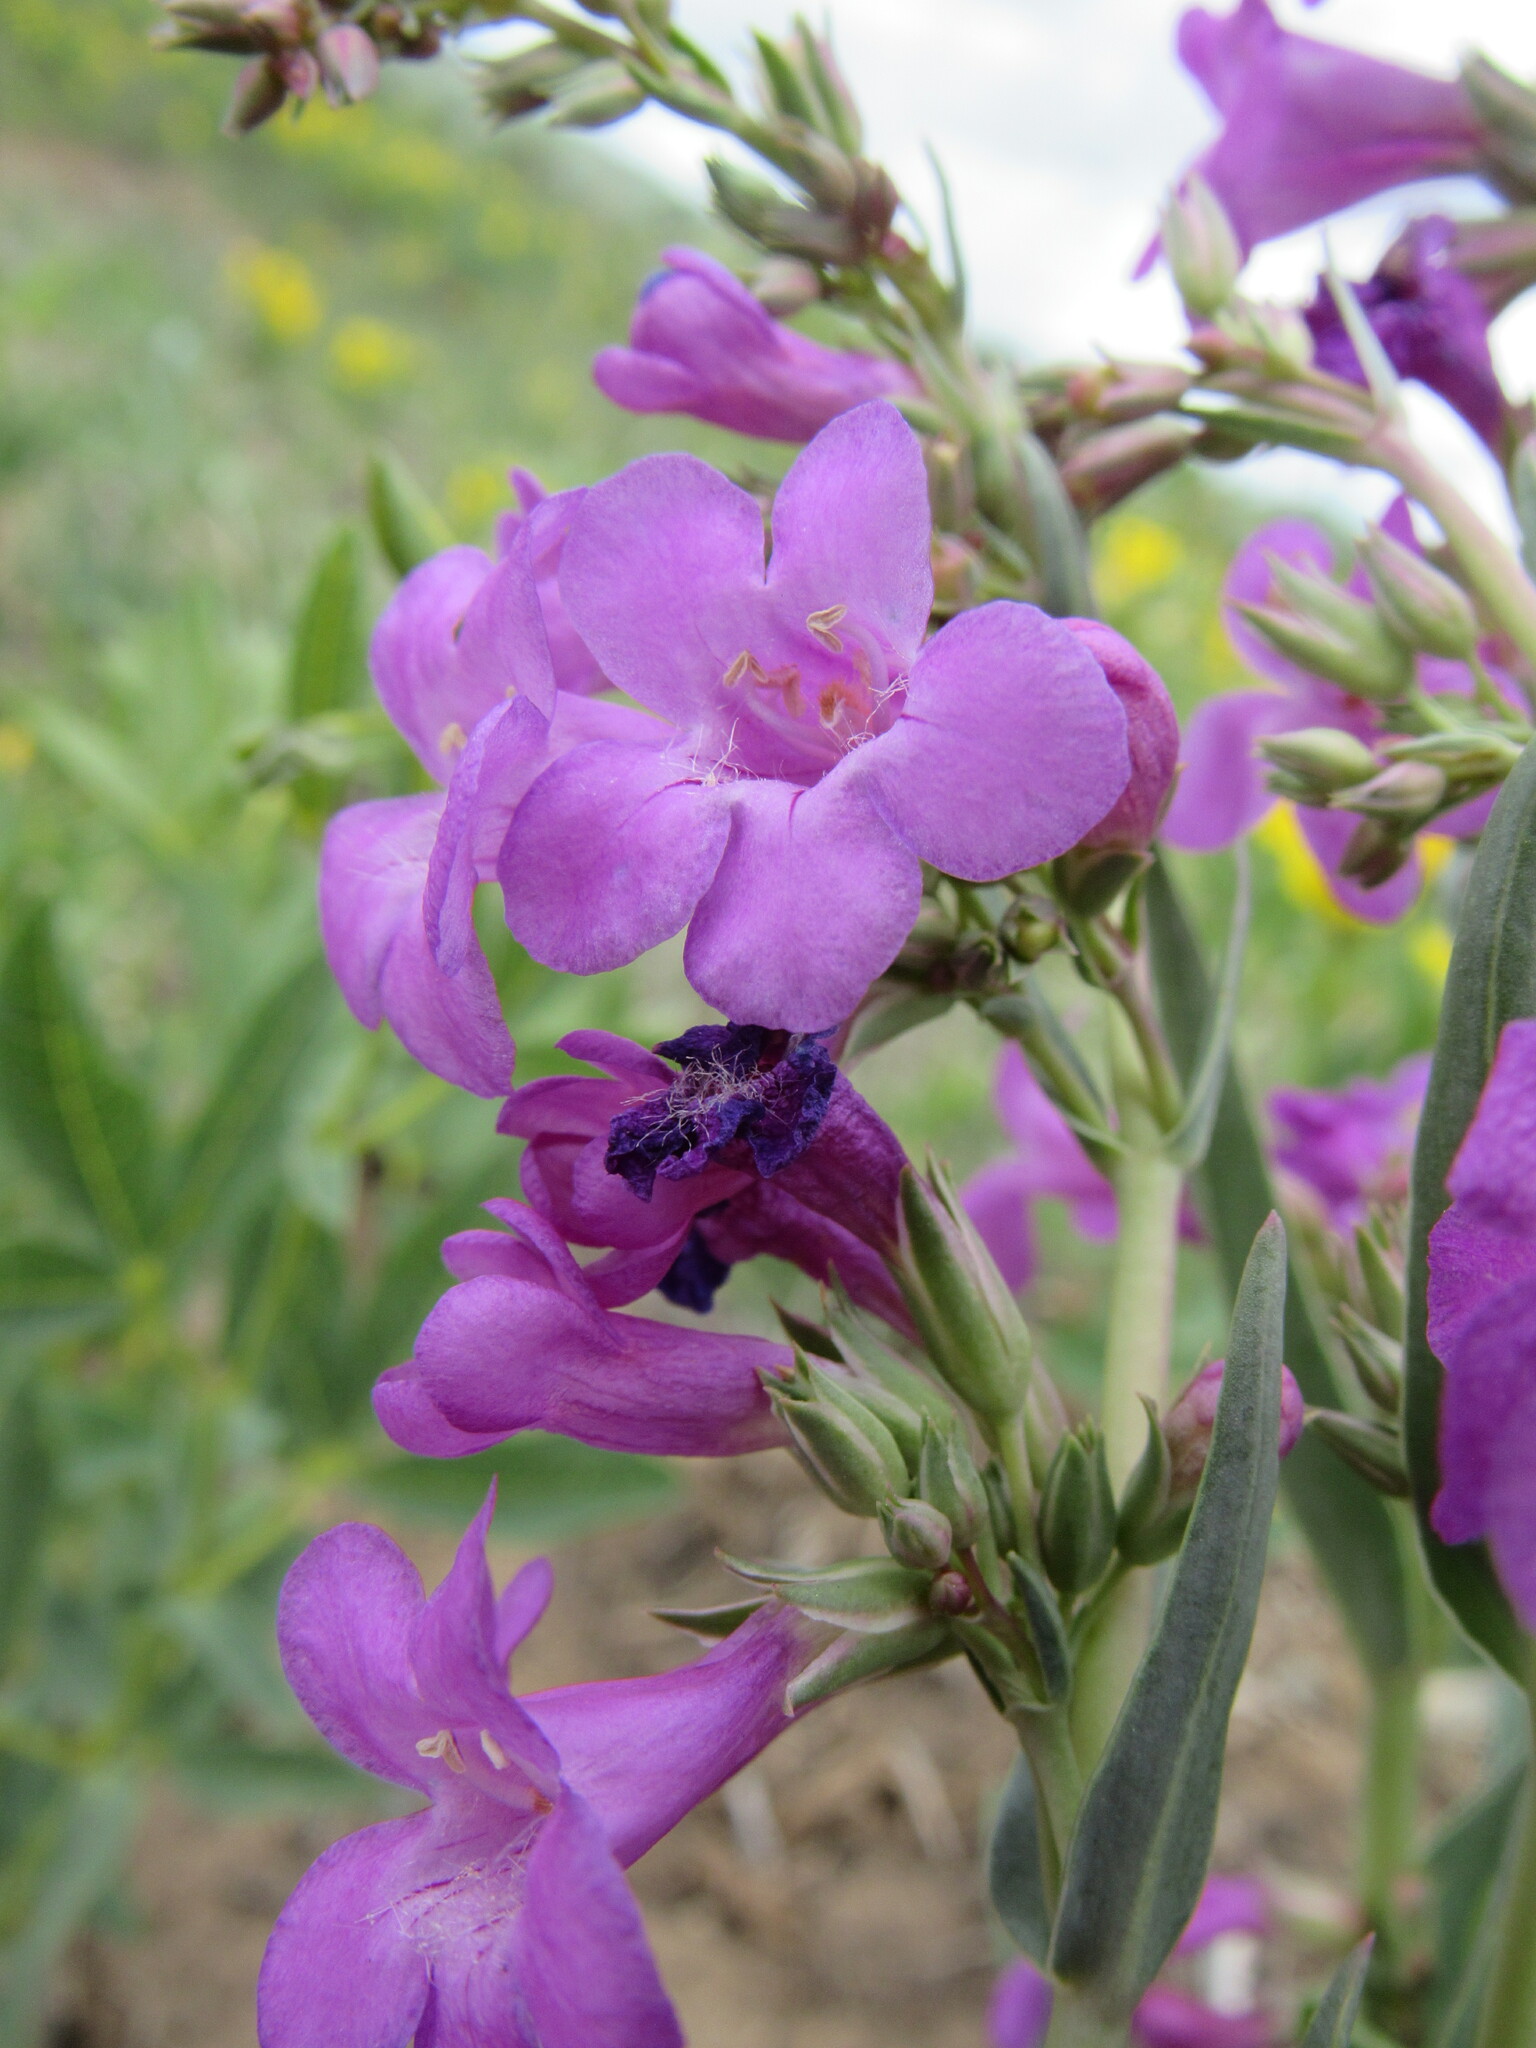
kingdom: Plantae
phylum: Tracheophyta
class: Magnoliopsida
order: Lamiales
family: Plantaginaceae
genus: Penstemon
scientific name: Penstemon secundiflorus
